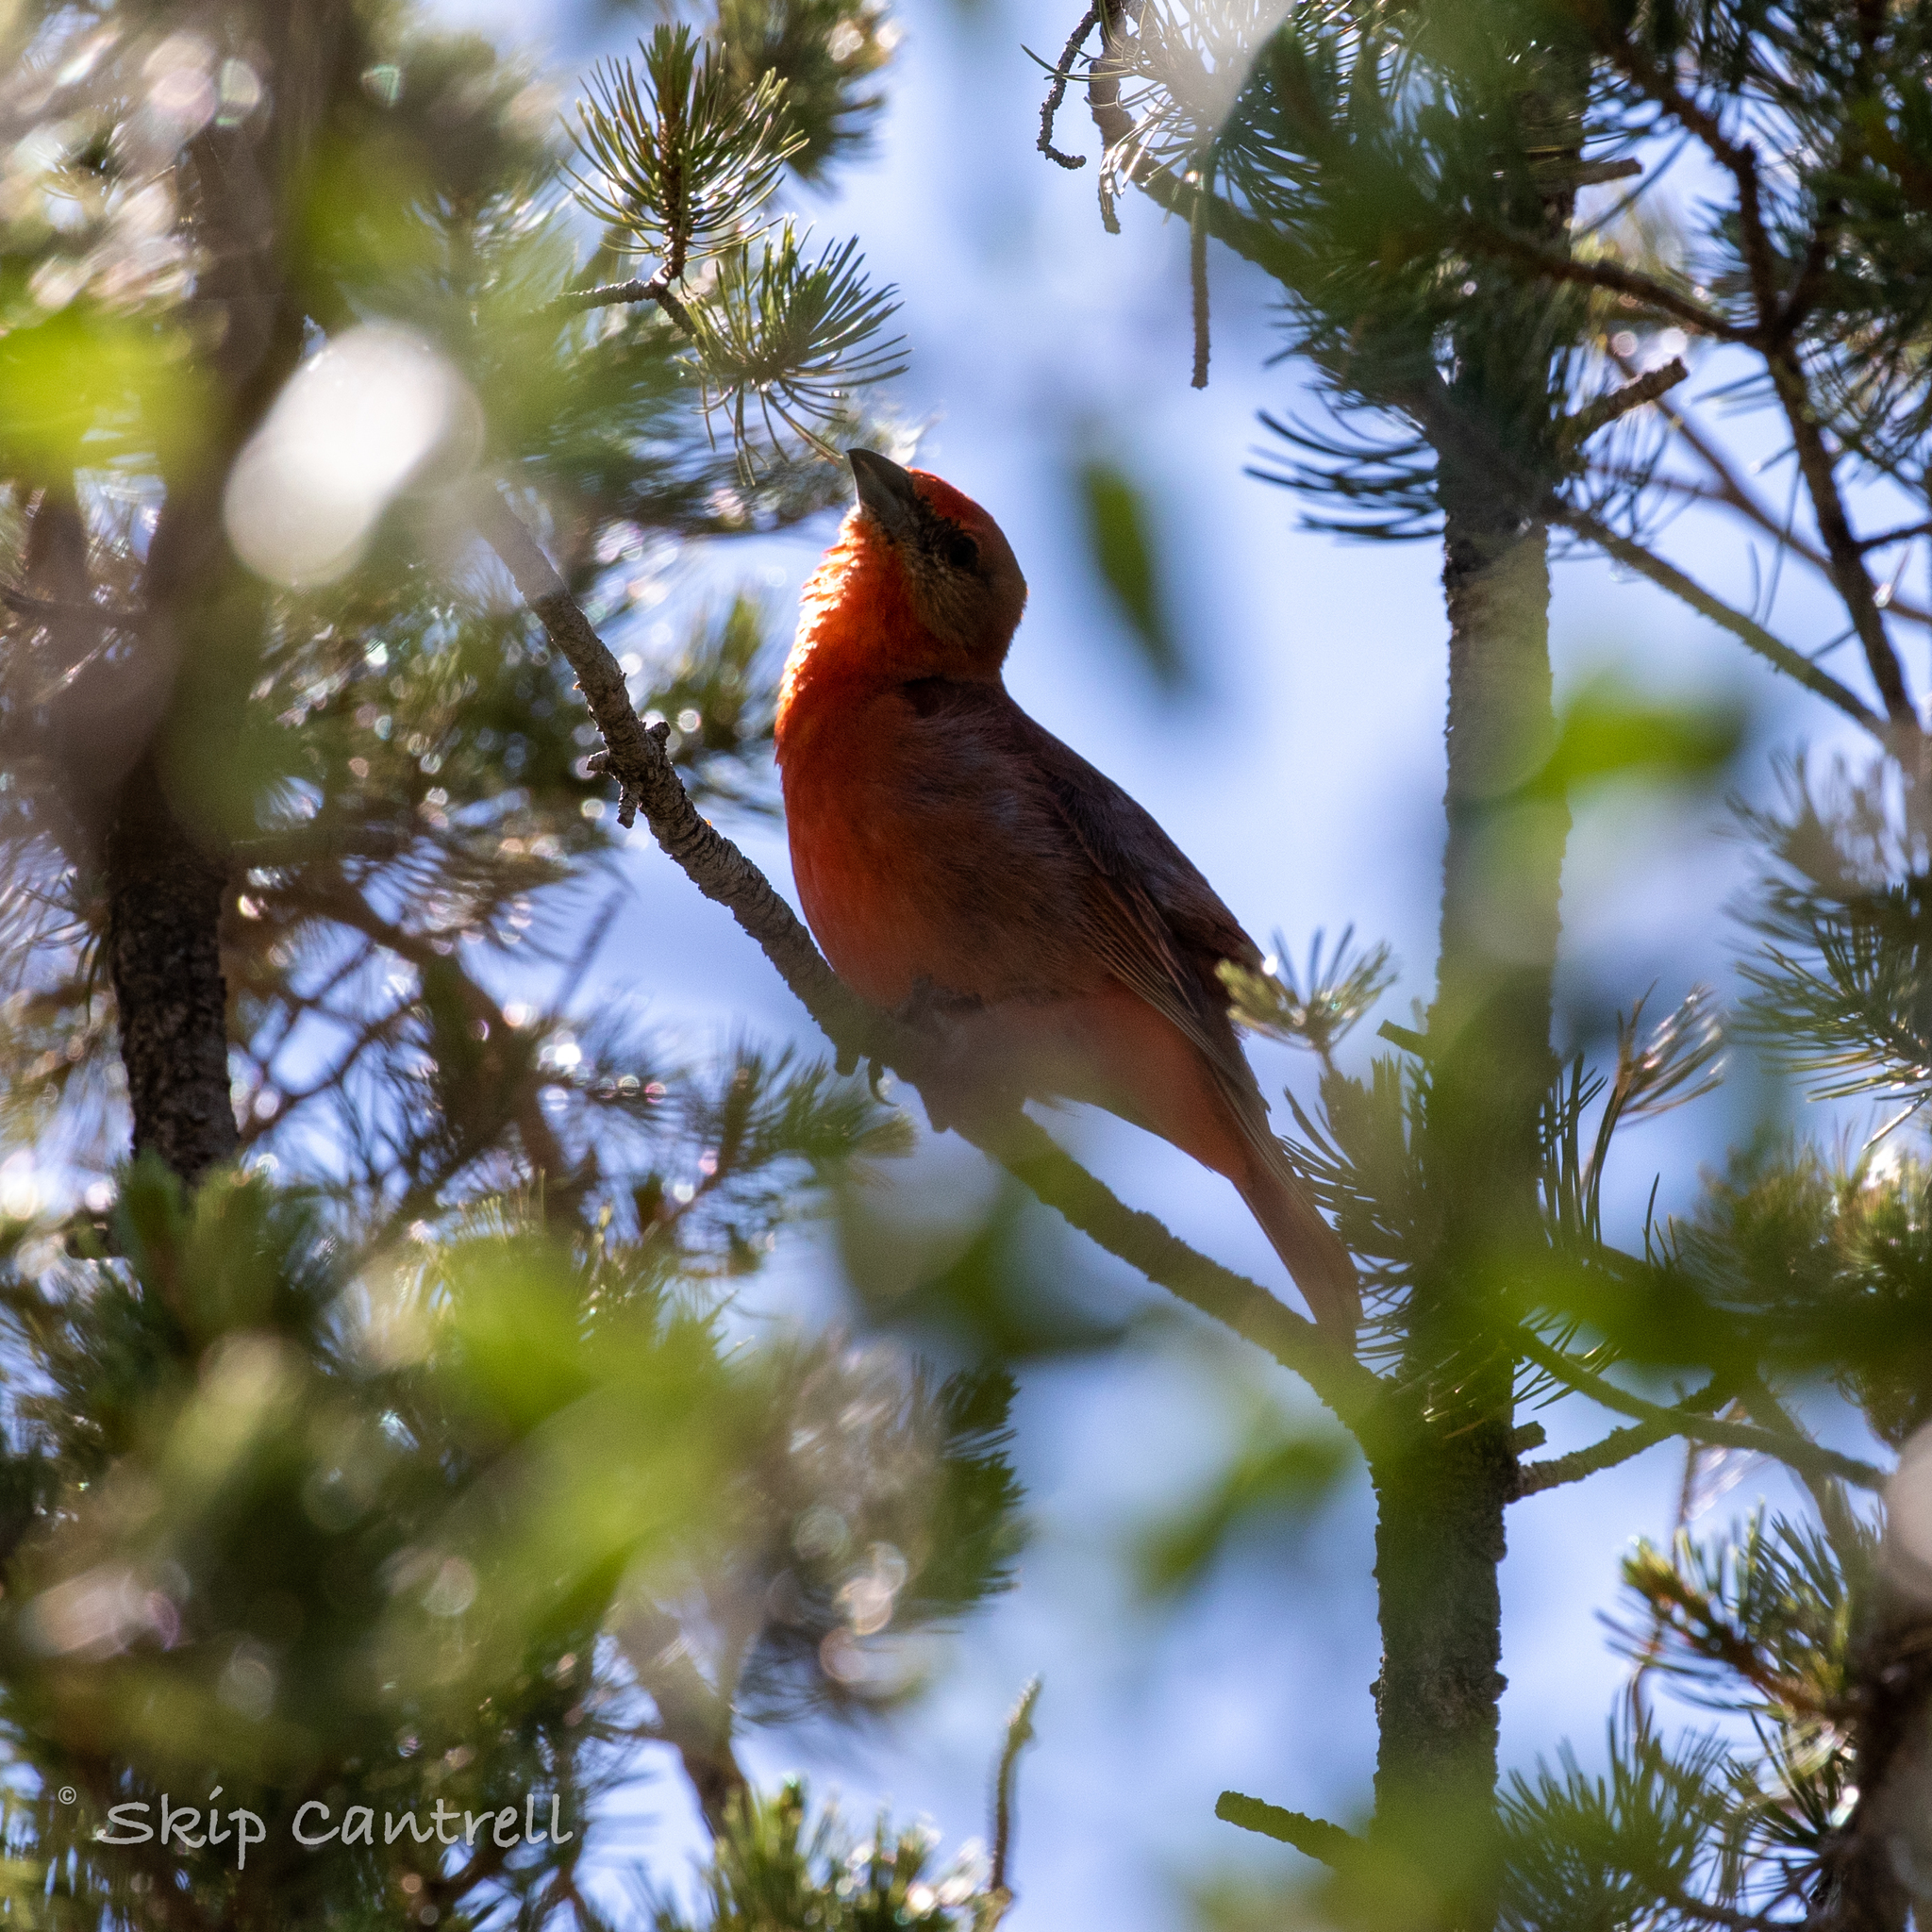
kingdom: Animalia
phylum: Chordata
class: Aves
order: Passeriformes
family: Cardinalidae
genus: Piranga
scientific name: Piranga flava
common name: Red tanager
